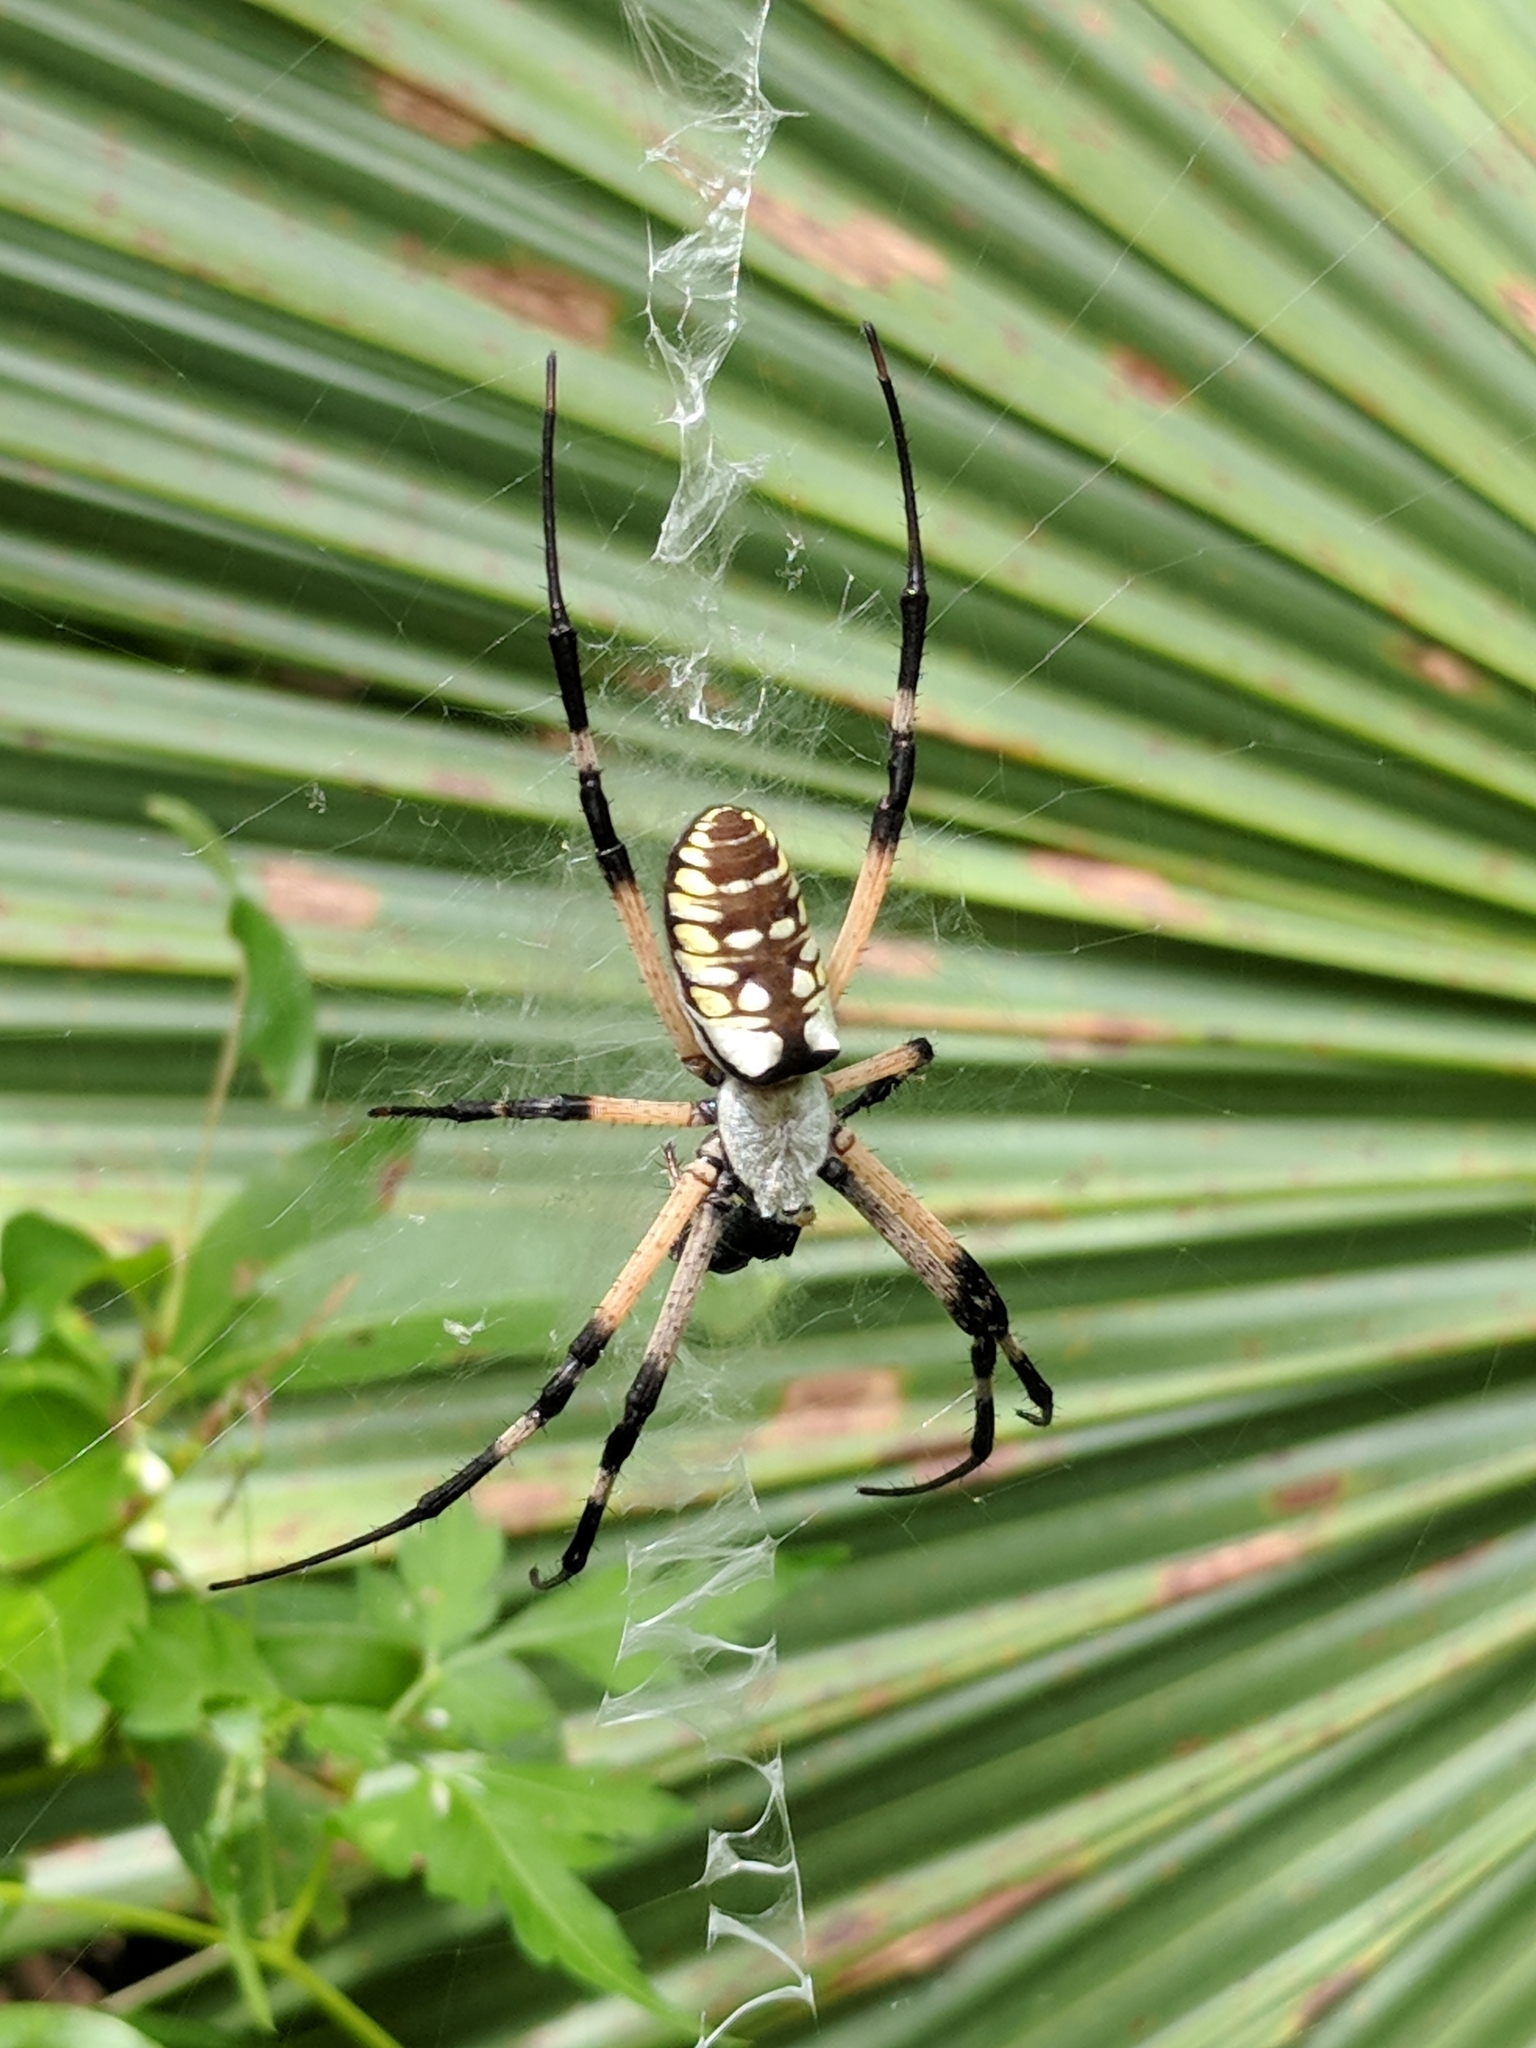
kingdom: Animalia
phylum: Arthropoda
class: Arachnida
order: Araneae
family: Araneidae
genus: Argiope
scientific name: Argiope aurantia
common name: Orb weavers
